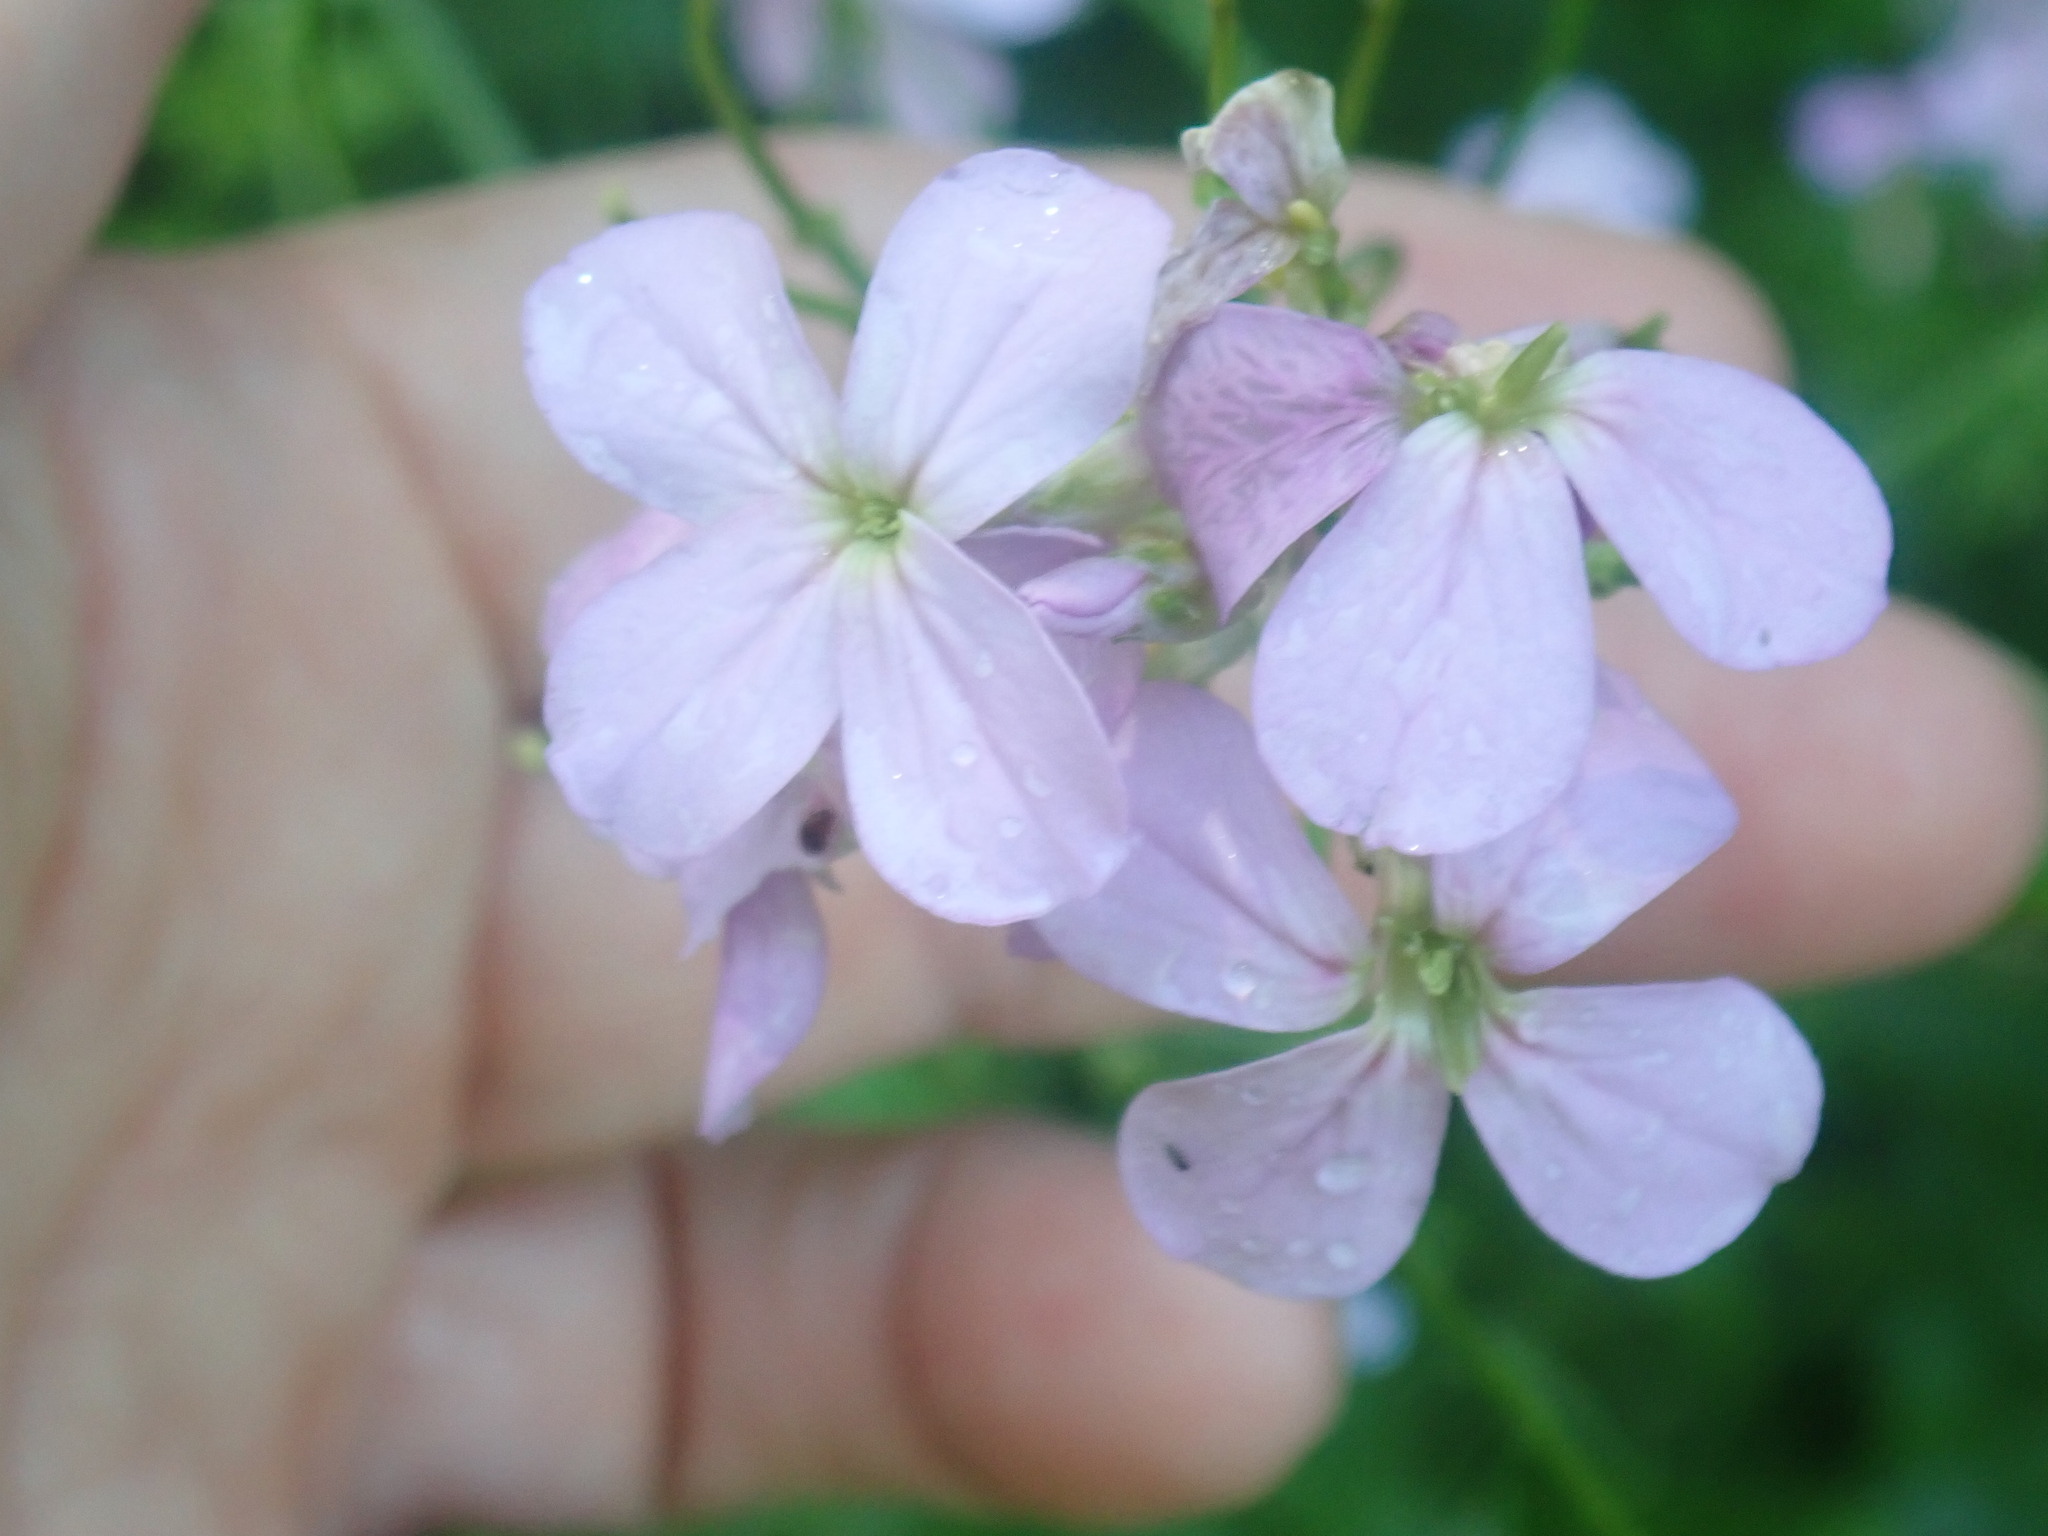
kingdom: Plantae
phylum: Tracheophyta
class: Magnoliopsida
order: Brassicales
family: Brassicaceae
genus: Hesperis
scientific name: Hesperis matronalis
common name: Dame's-violet
